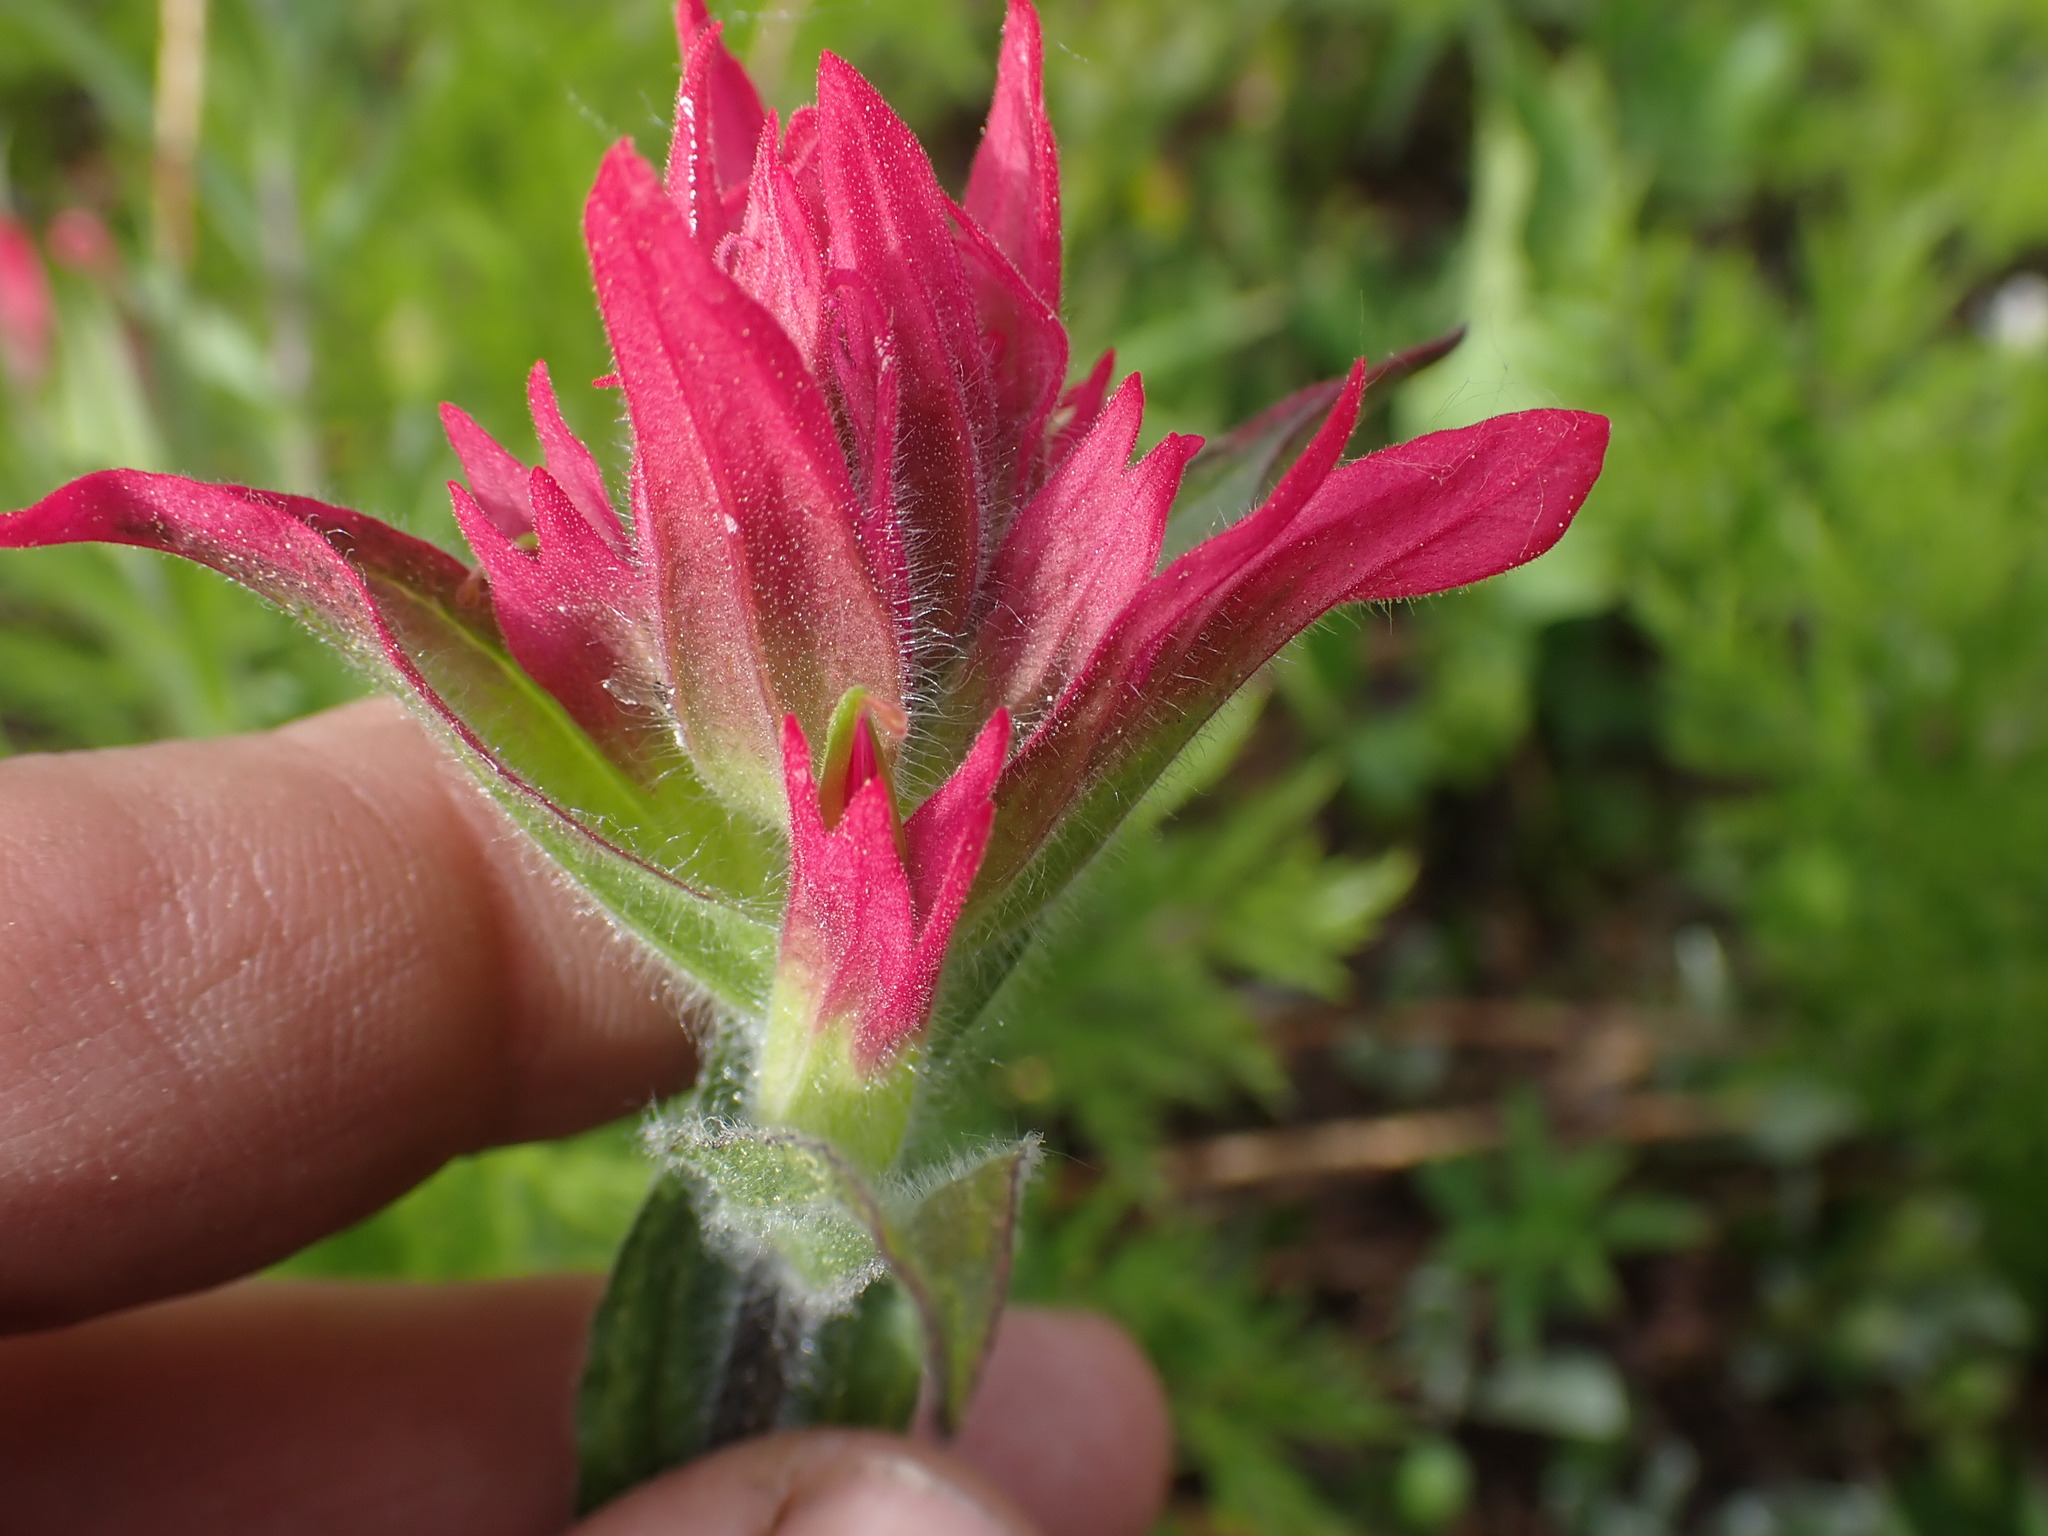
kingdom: Plantae
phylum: Tracheophyta
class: Magnoliopsida
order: Lamiales
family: Orobanchaceae
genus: Castilleja
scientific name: Castilleja rhexifolia
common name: Rocky mountain paintbrush
